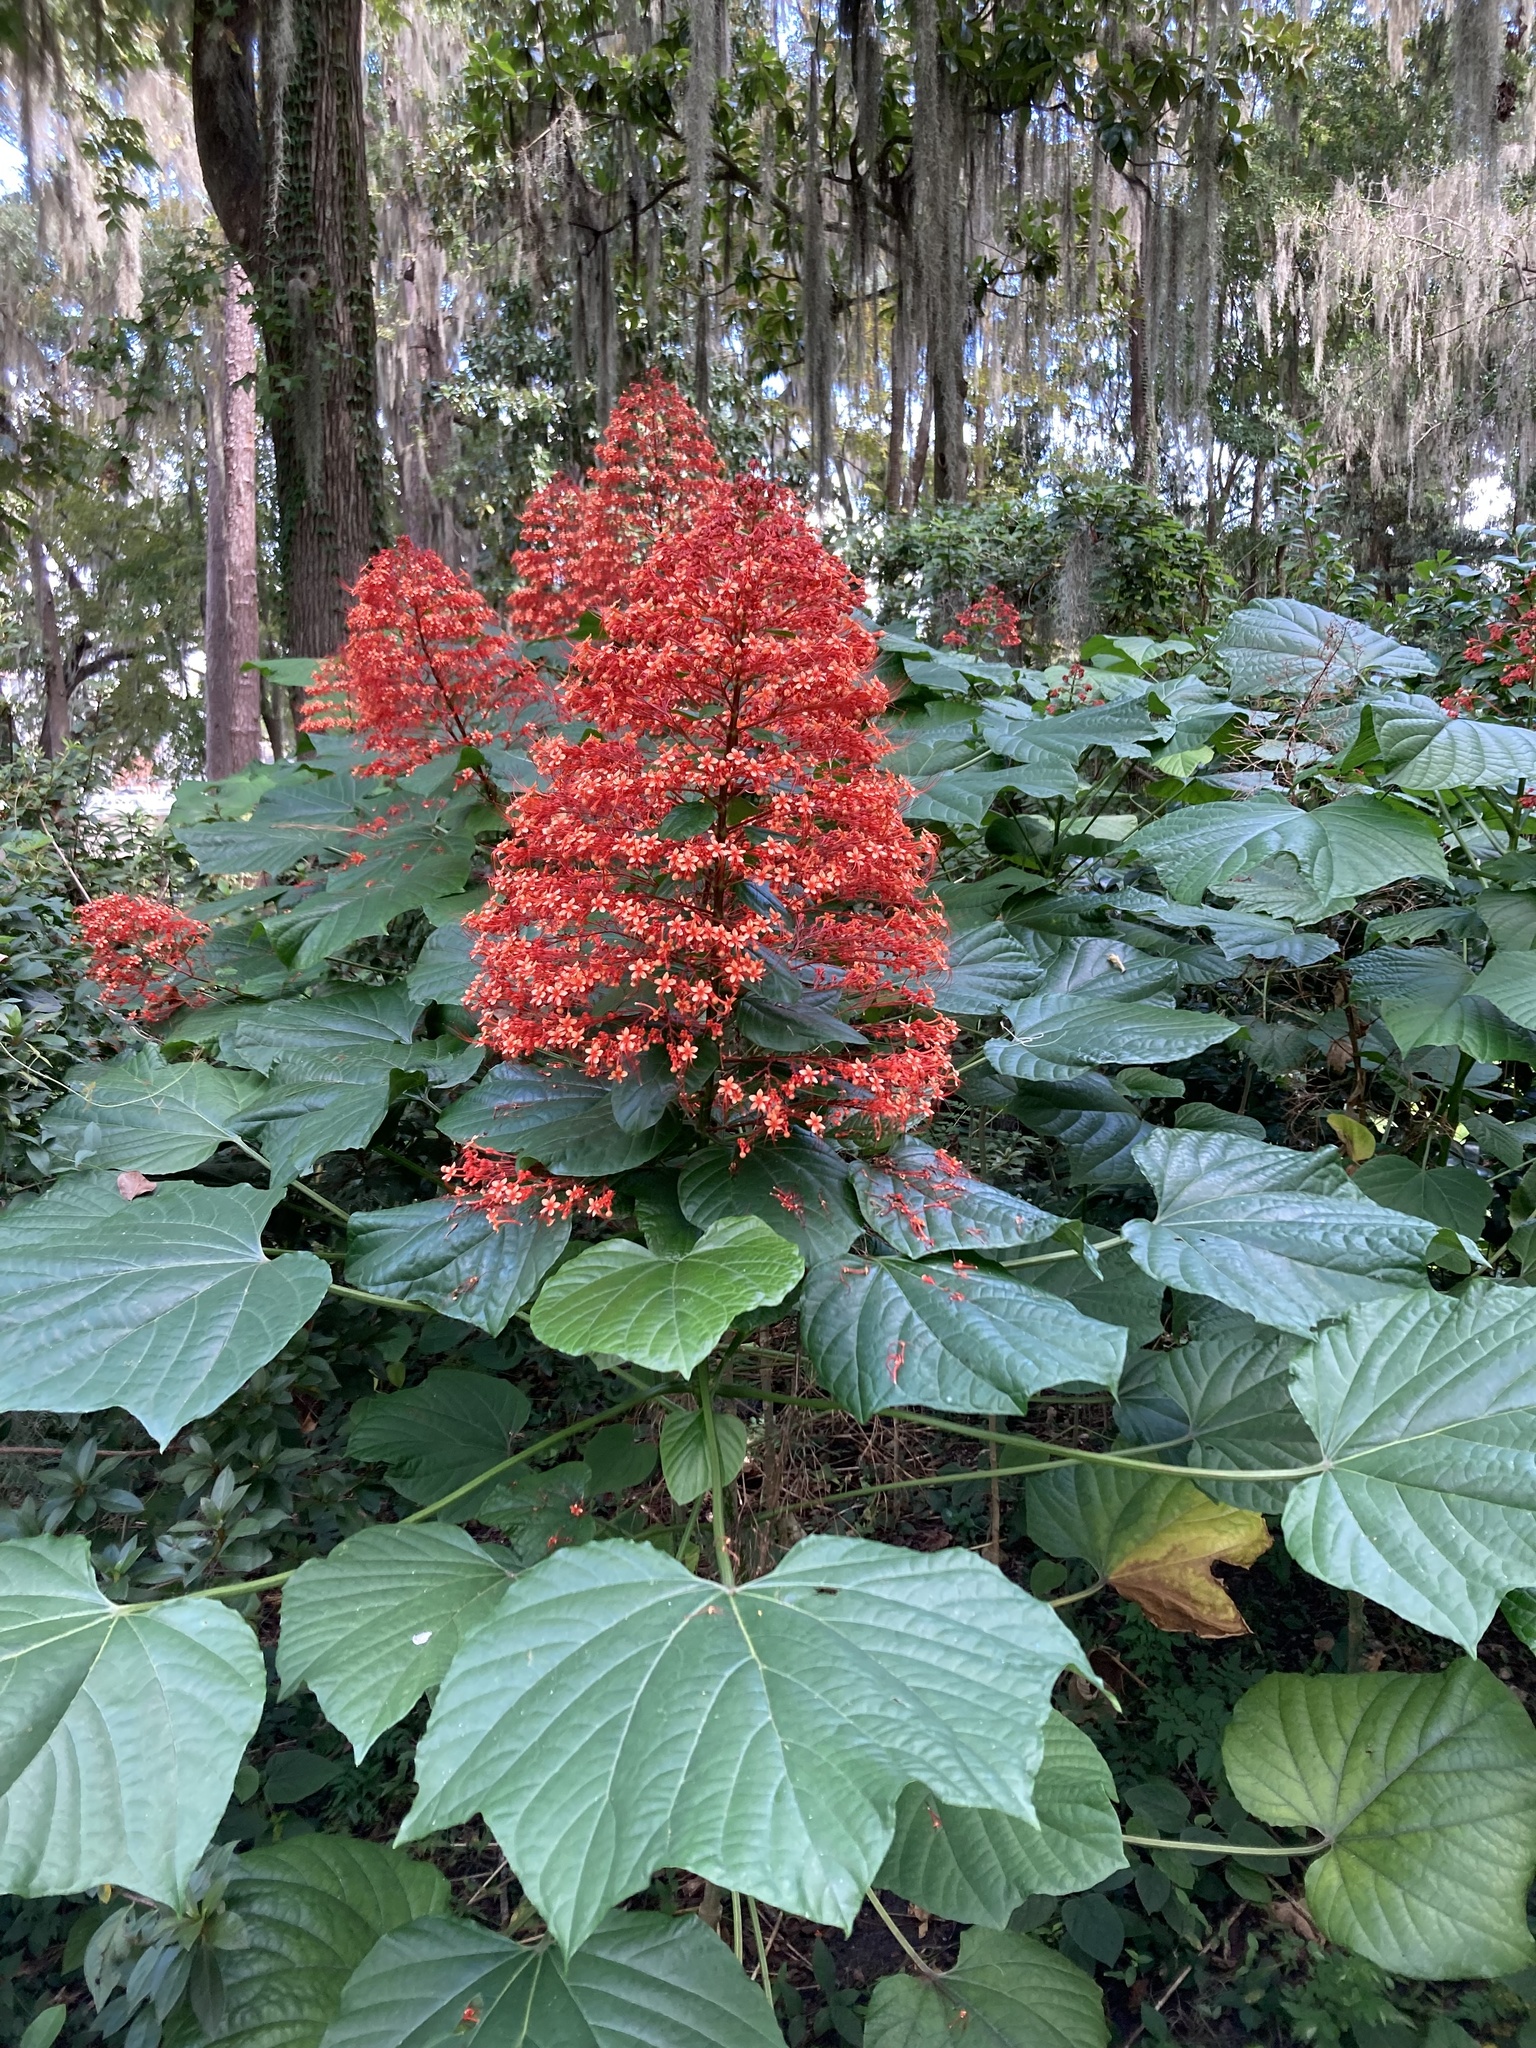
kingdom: Plantae
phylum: Tracheophyta
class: Magnoliopsida
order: Lamiales
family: Lamiaceae
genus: Clerodendrum
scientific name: Clerodendrum paniculatum
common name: Pagoda-flower
